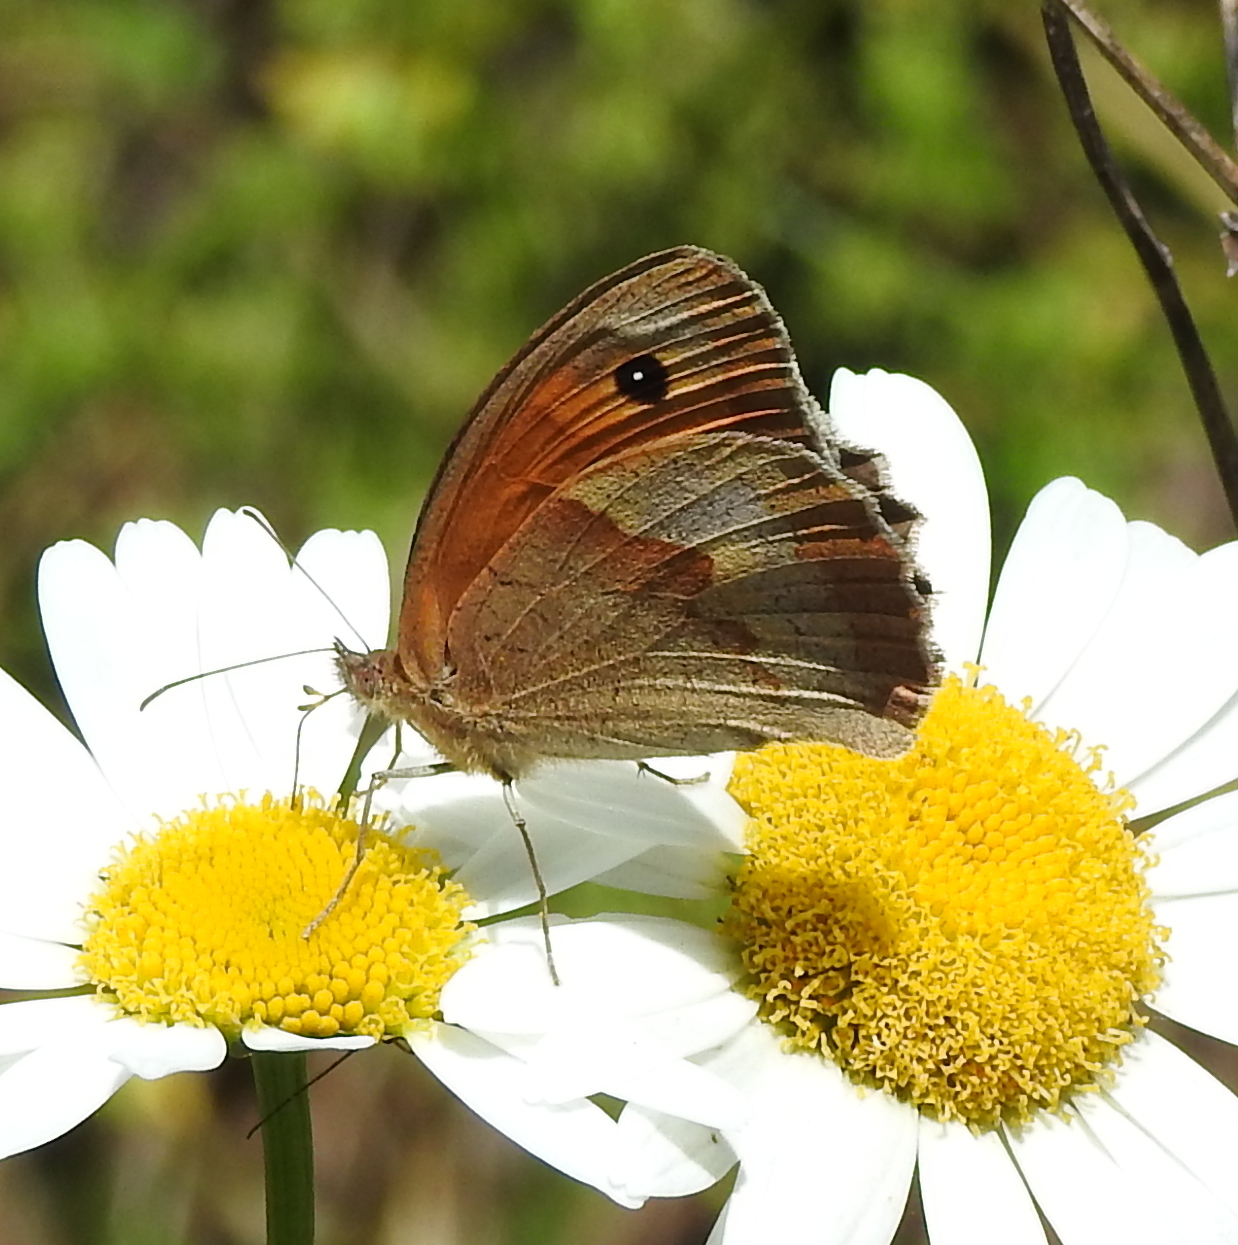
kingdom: Animalia
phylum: Arthropoda
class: Insecta
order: Lepidoptera
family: Nymphalidae
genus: Maniola
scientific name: Maniola jurtina
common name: Meadow brown
